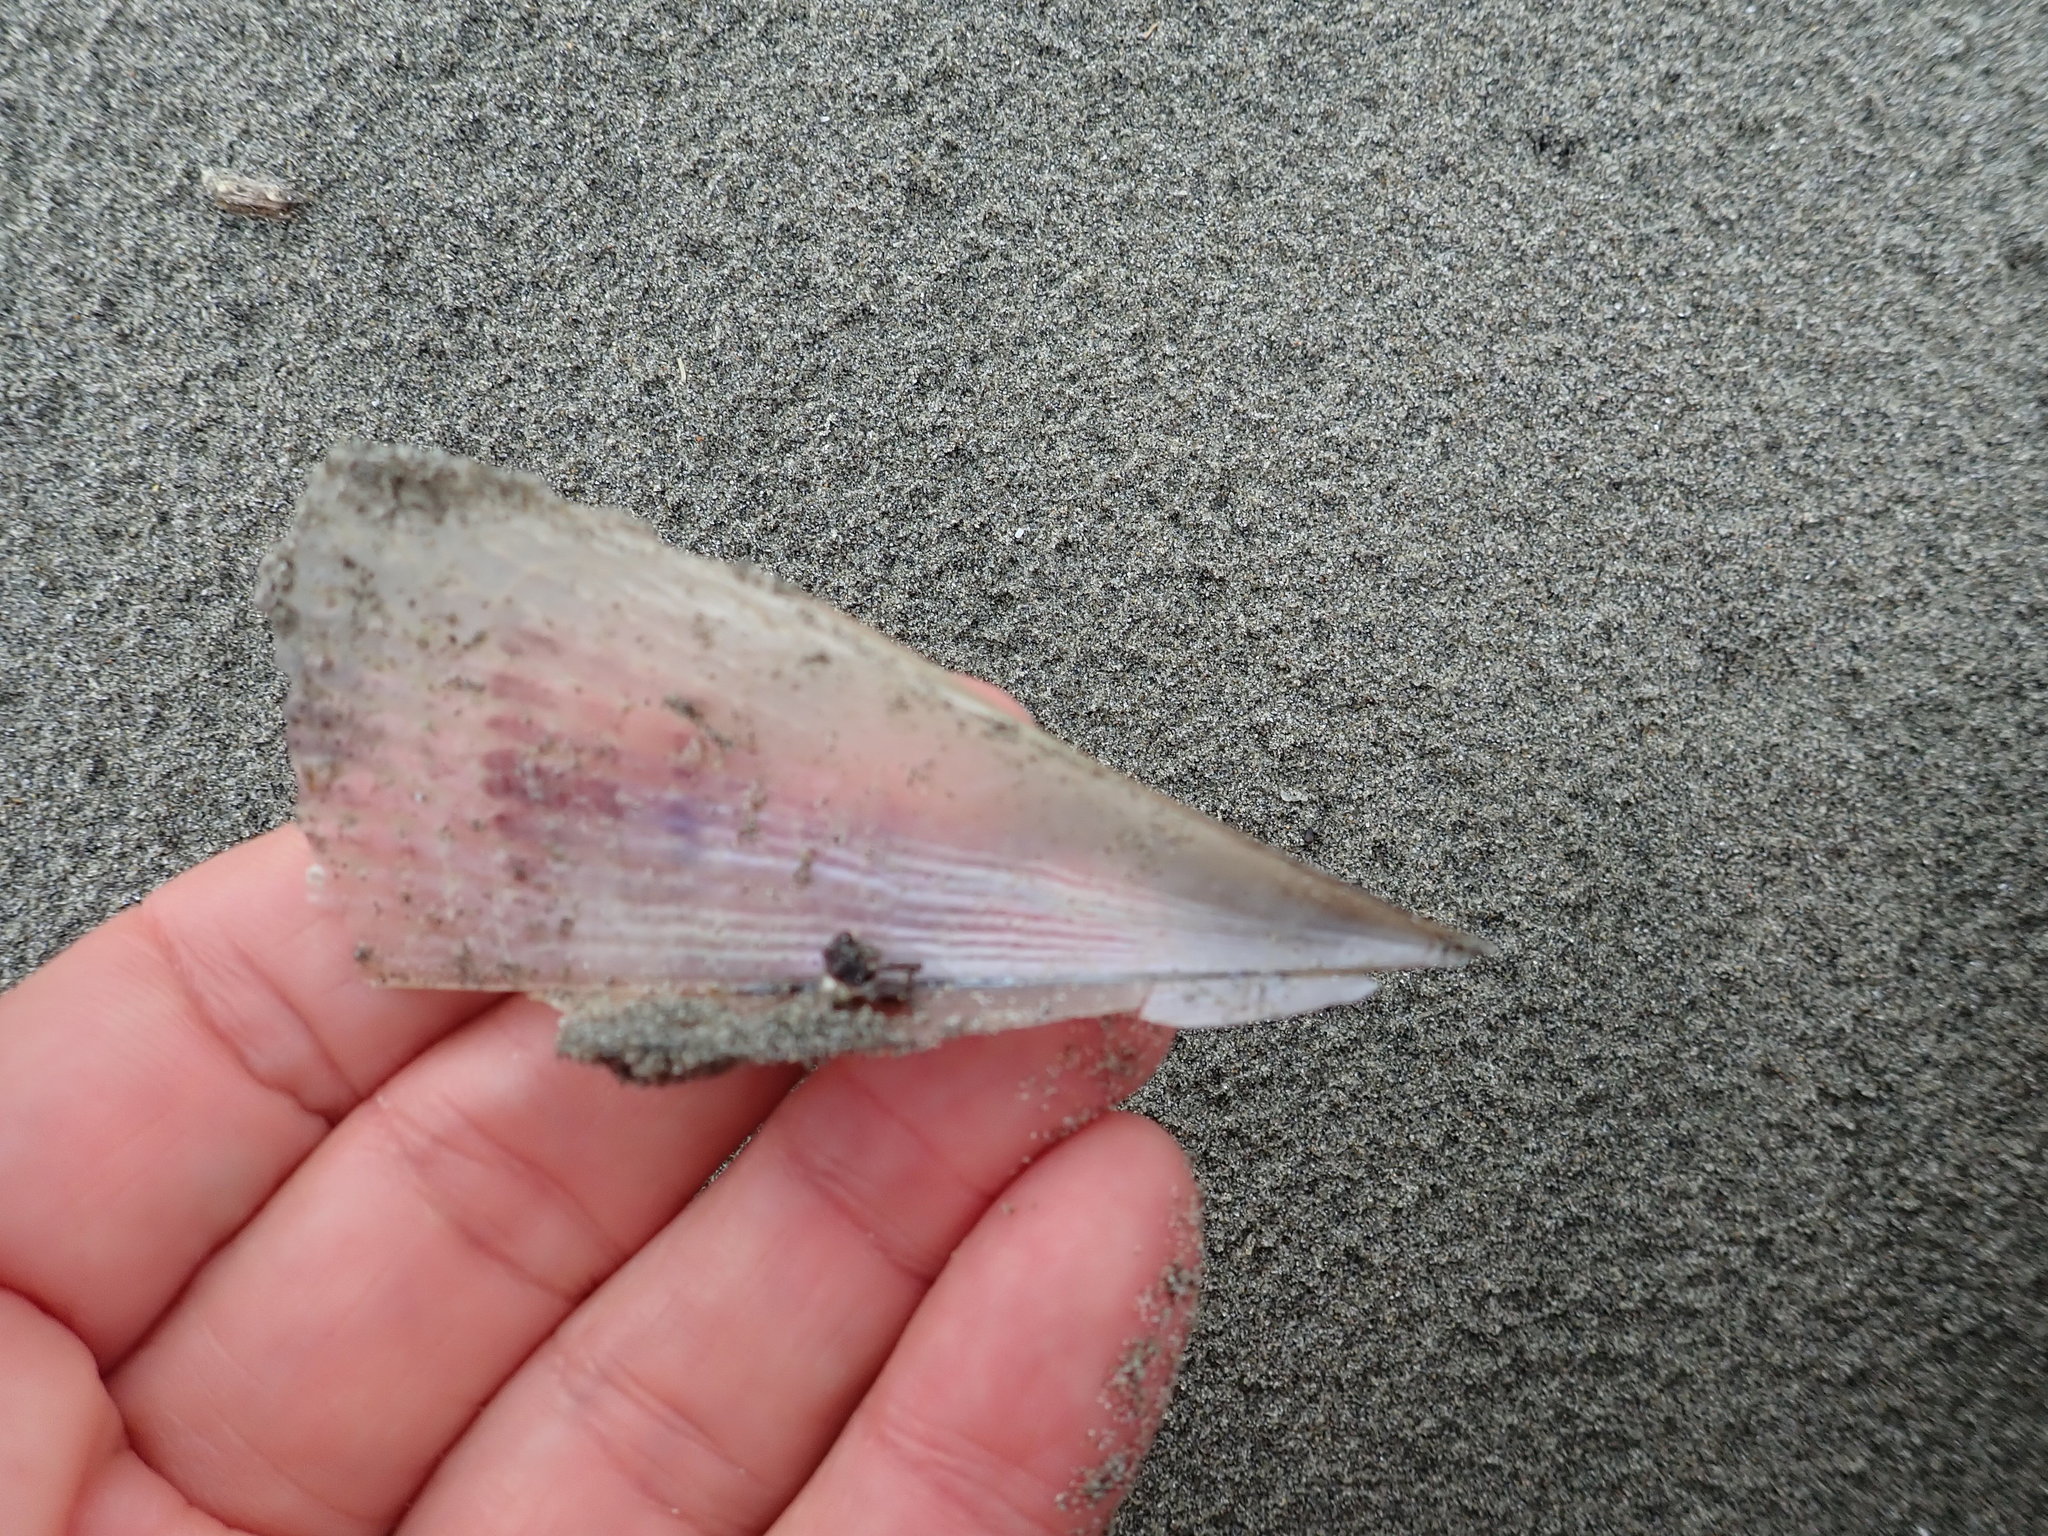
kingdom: Animalia
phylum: Mollusca
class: Bivalvia
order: Ostreida
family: Pinnidae
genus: Atrina
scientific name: Atrina zelandica
